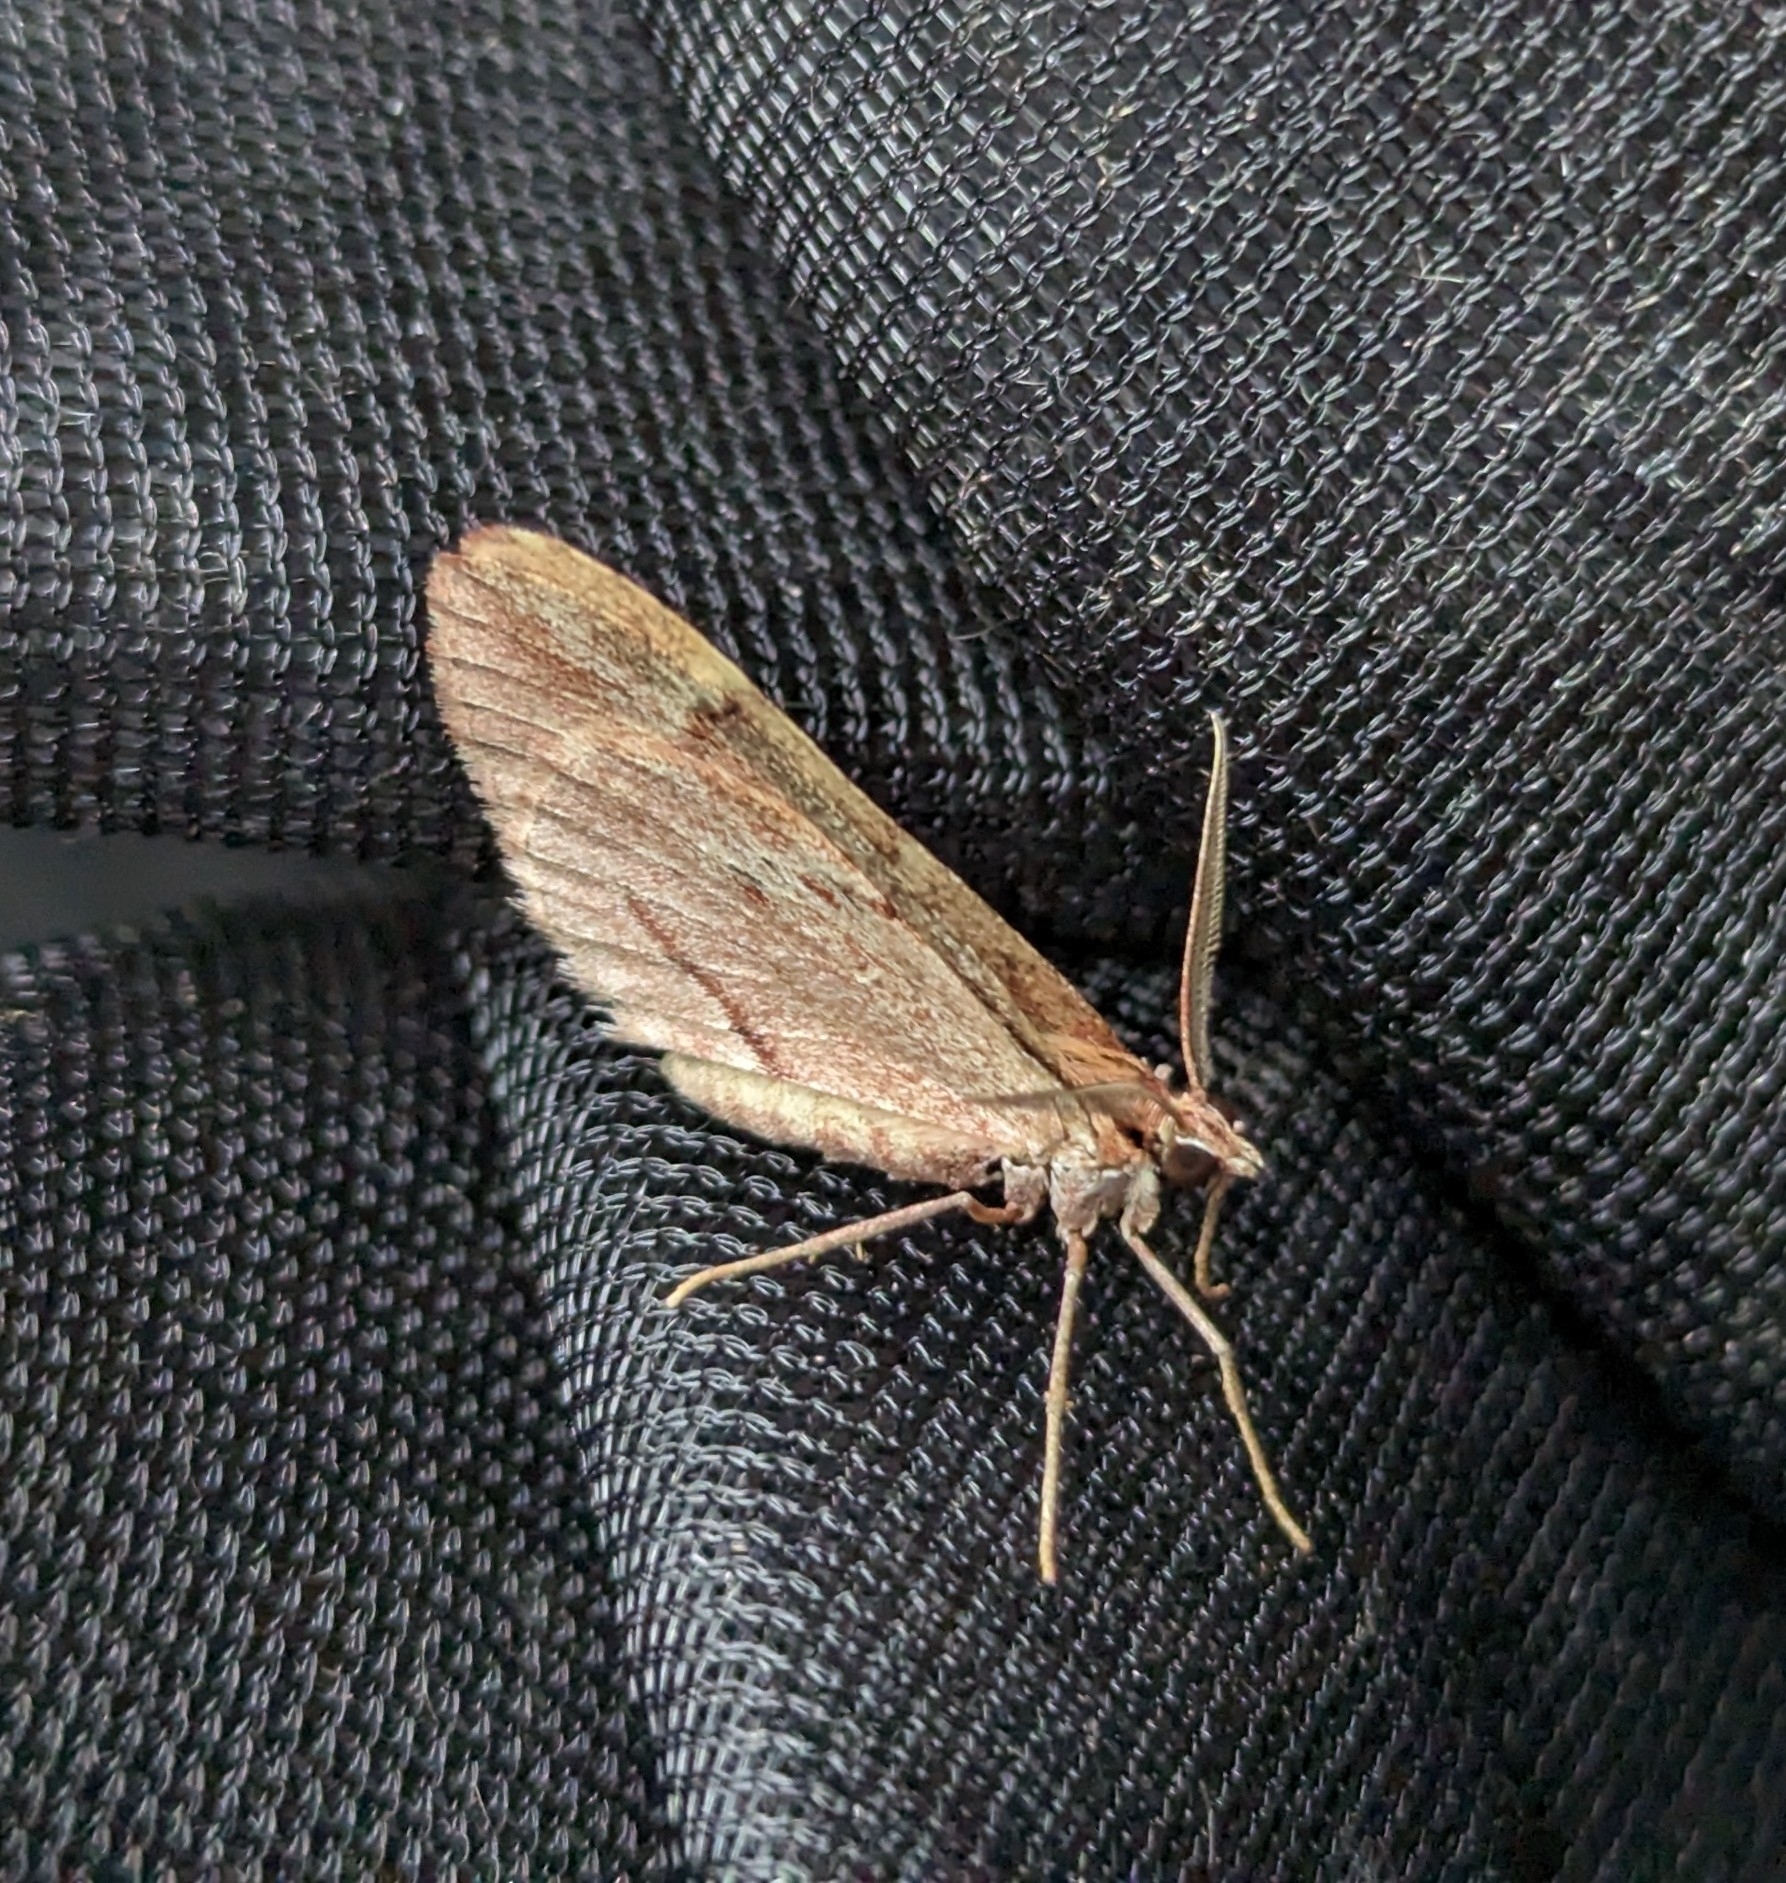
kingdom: Animalia
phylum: Arthropoda
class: Insecta
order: Lepidoptera
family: Geometridae
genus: Stamnoctenis
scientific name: Stamnoctenis pearsalli
